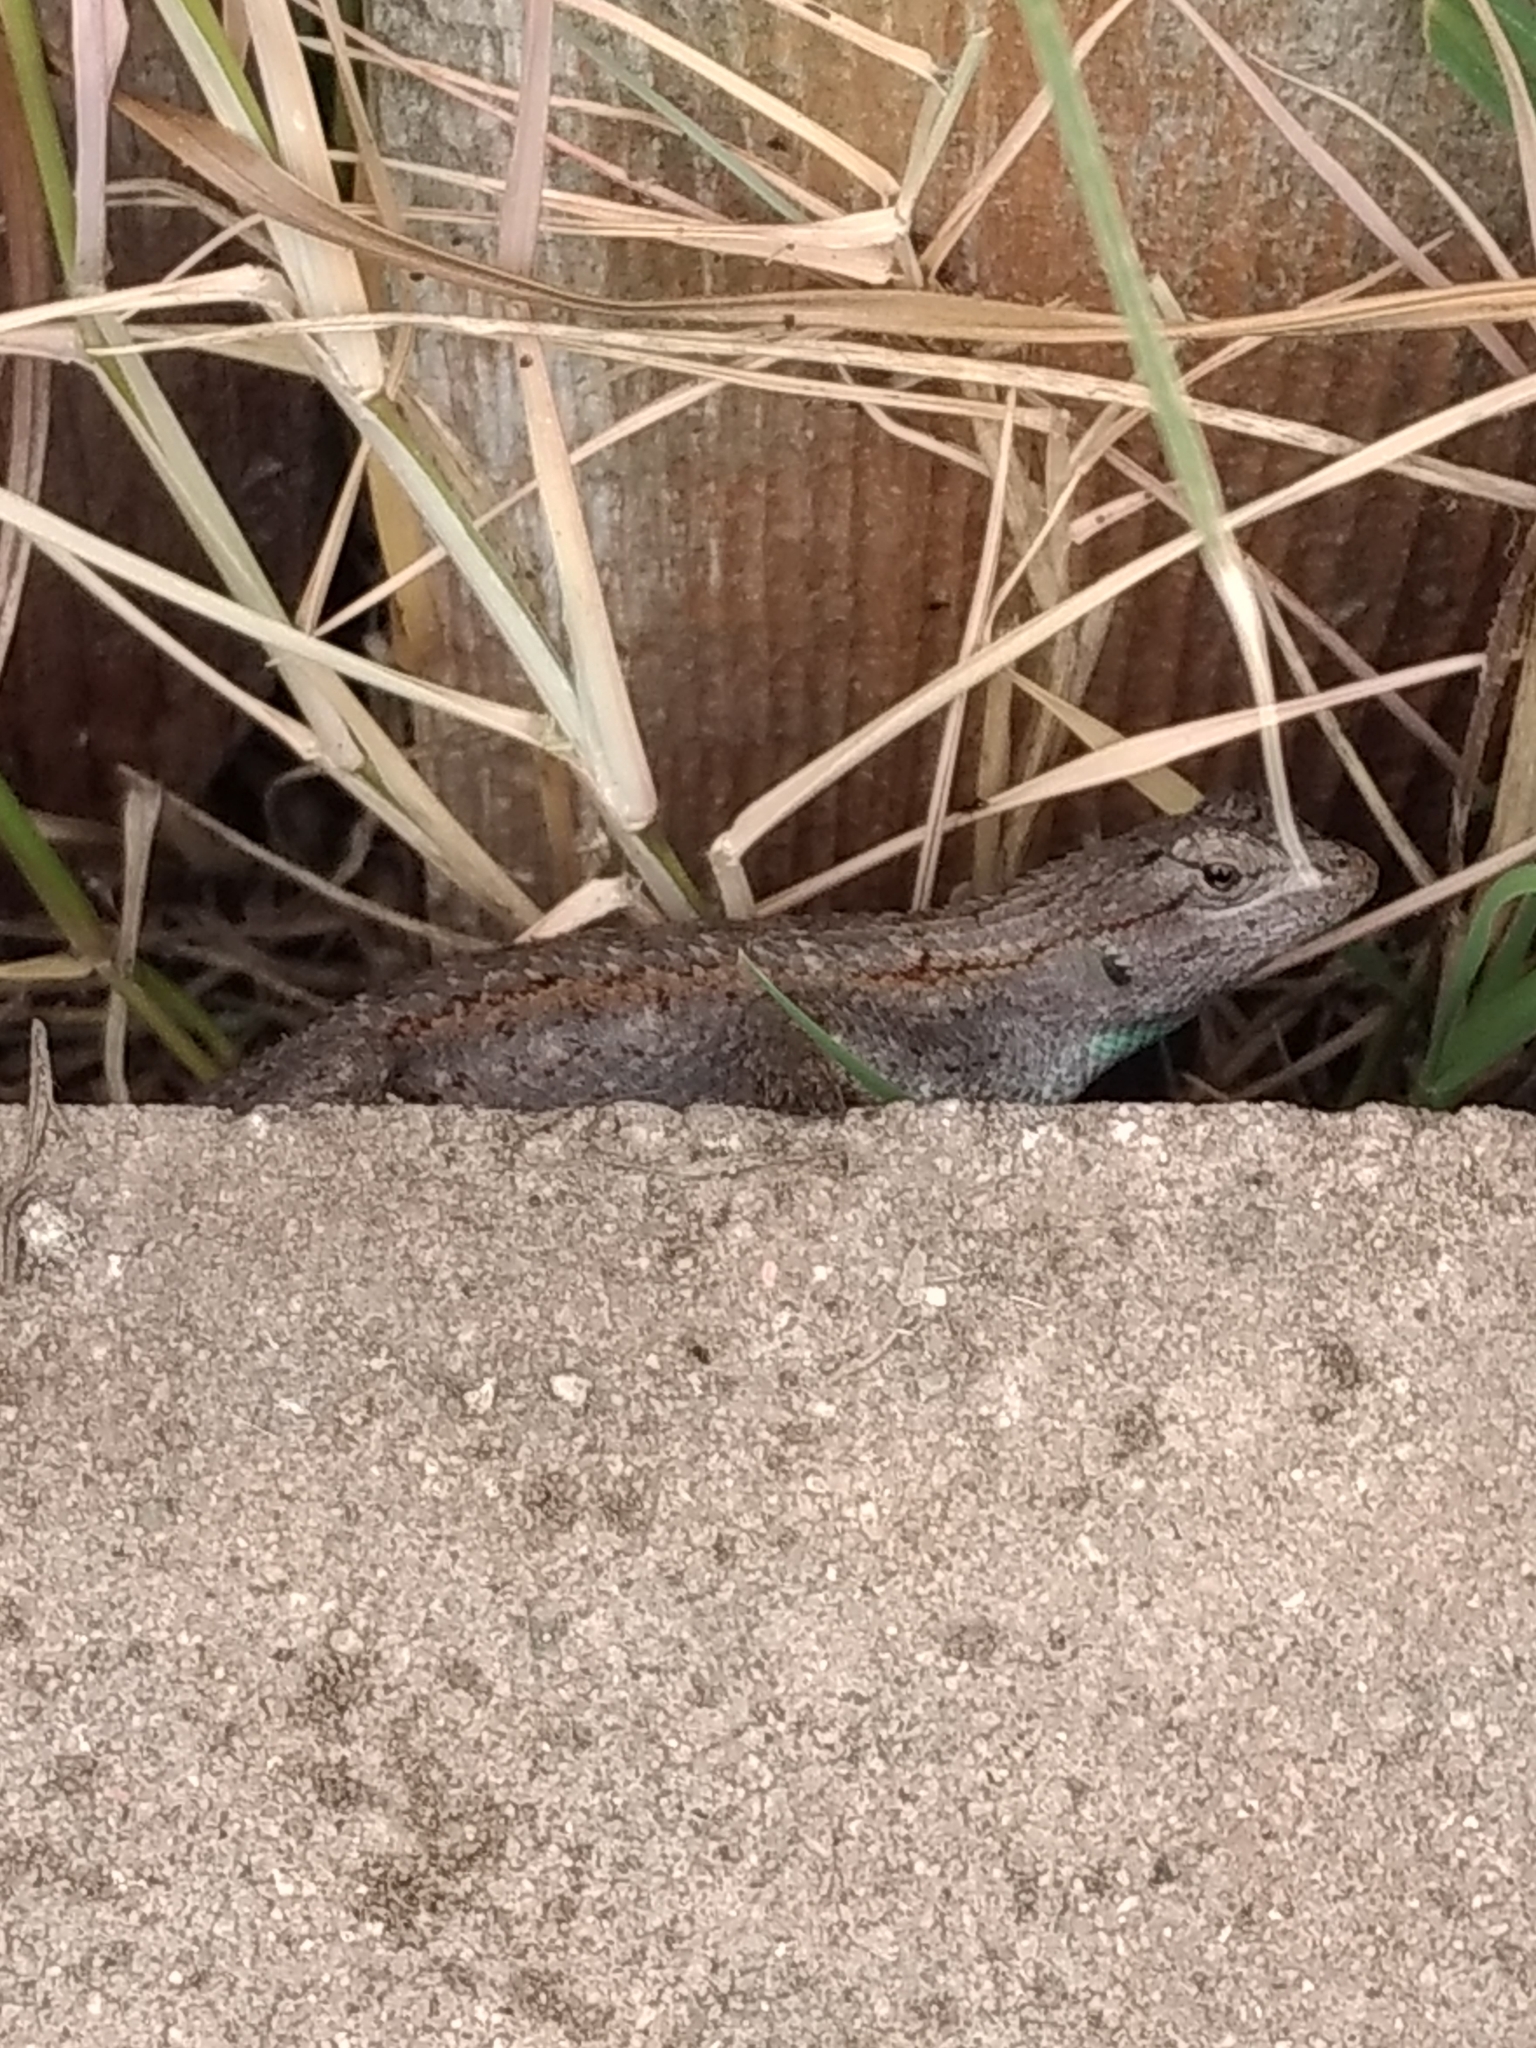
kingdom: Animalia
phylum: Chordata
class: Squamata
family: Phrynosomatidae
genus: Sceloporus
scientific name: Sceloporus occidentalis
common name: Western fence lizard
